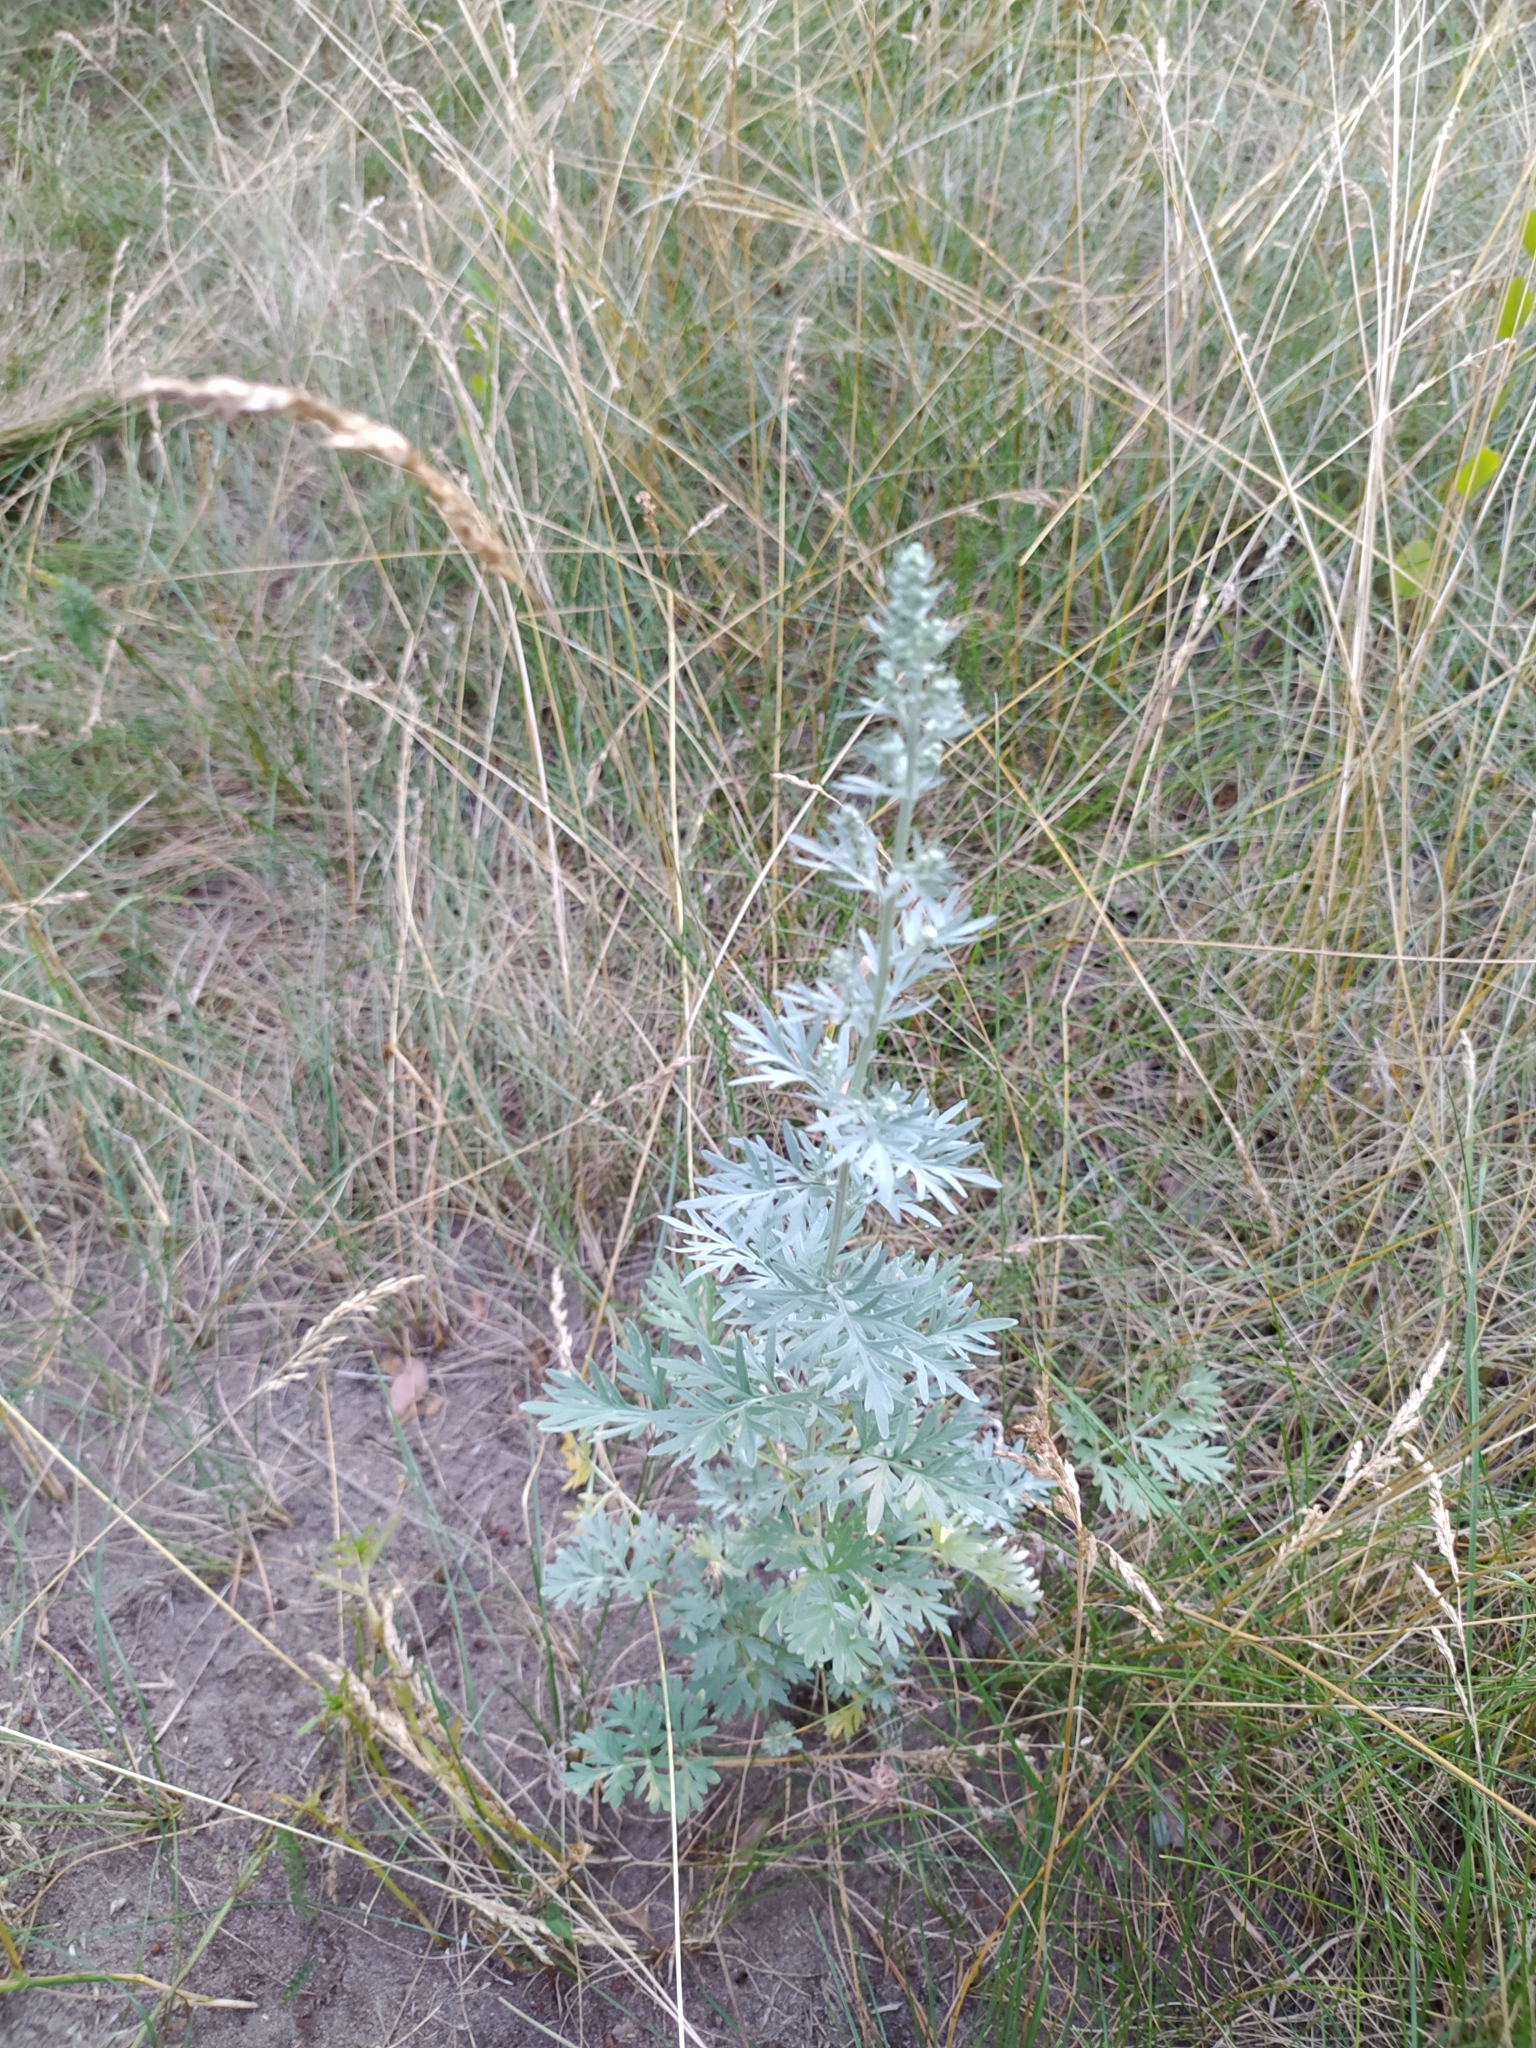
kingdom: Plantae
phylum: Tracheophyta
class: Magnoliopsida
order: Asterales
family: Asteraceae
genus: Artemisia
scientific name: Artemisia absinthium
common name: Wormwood
